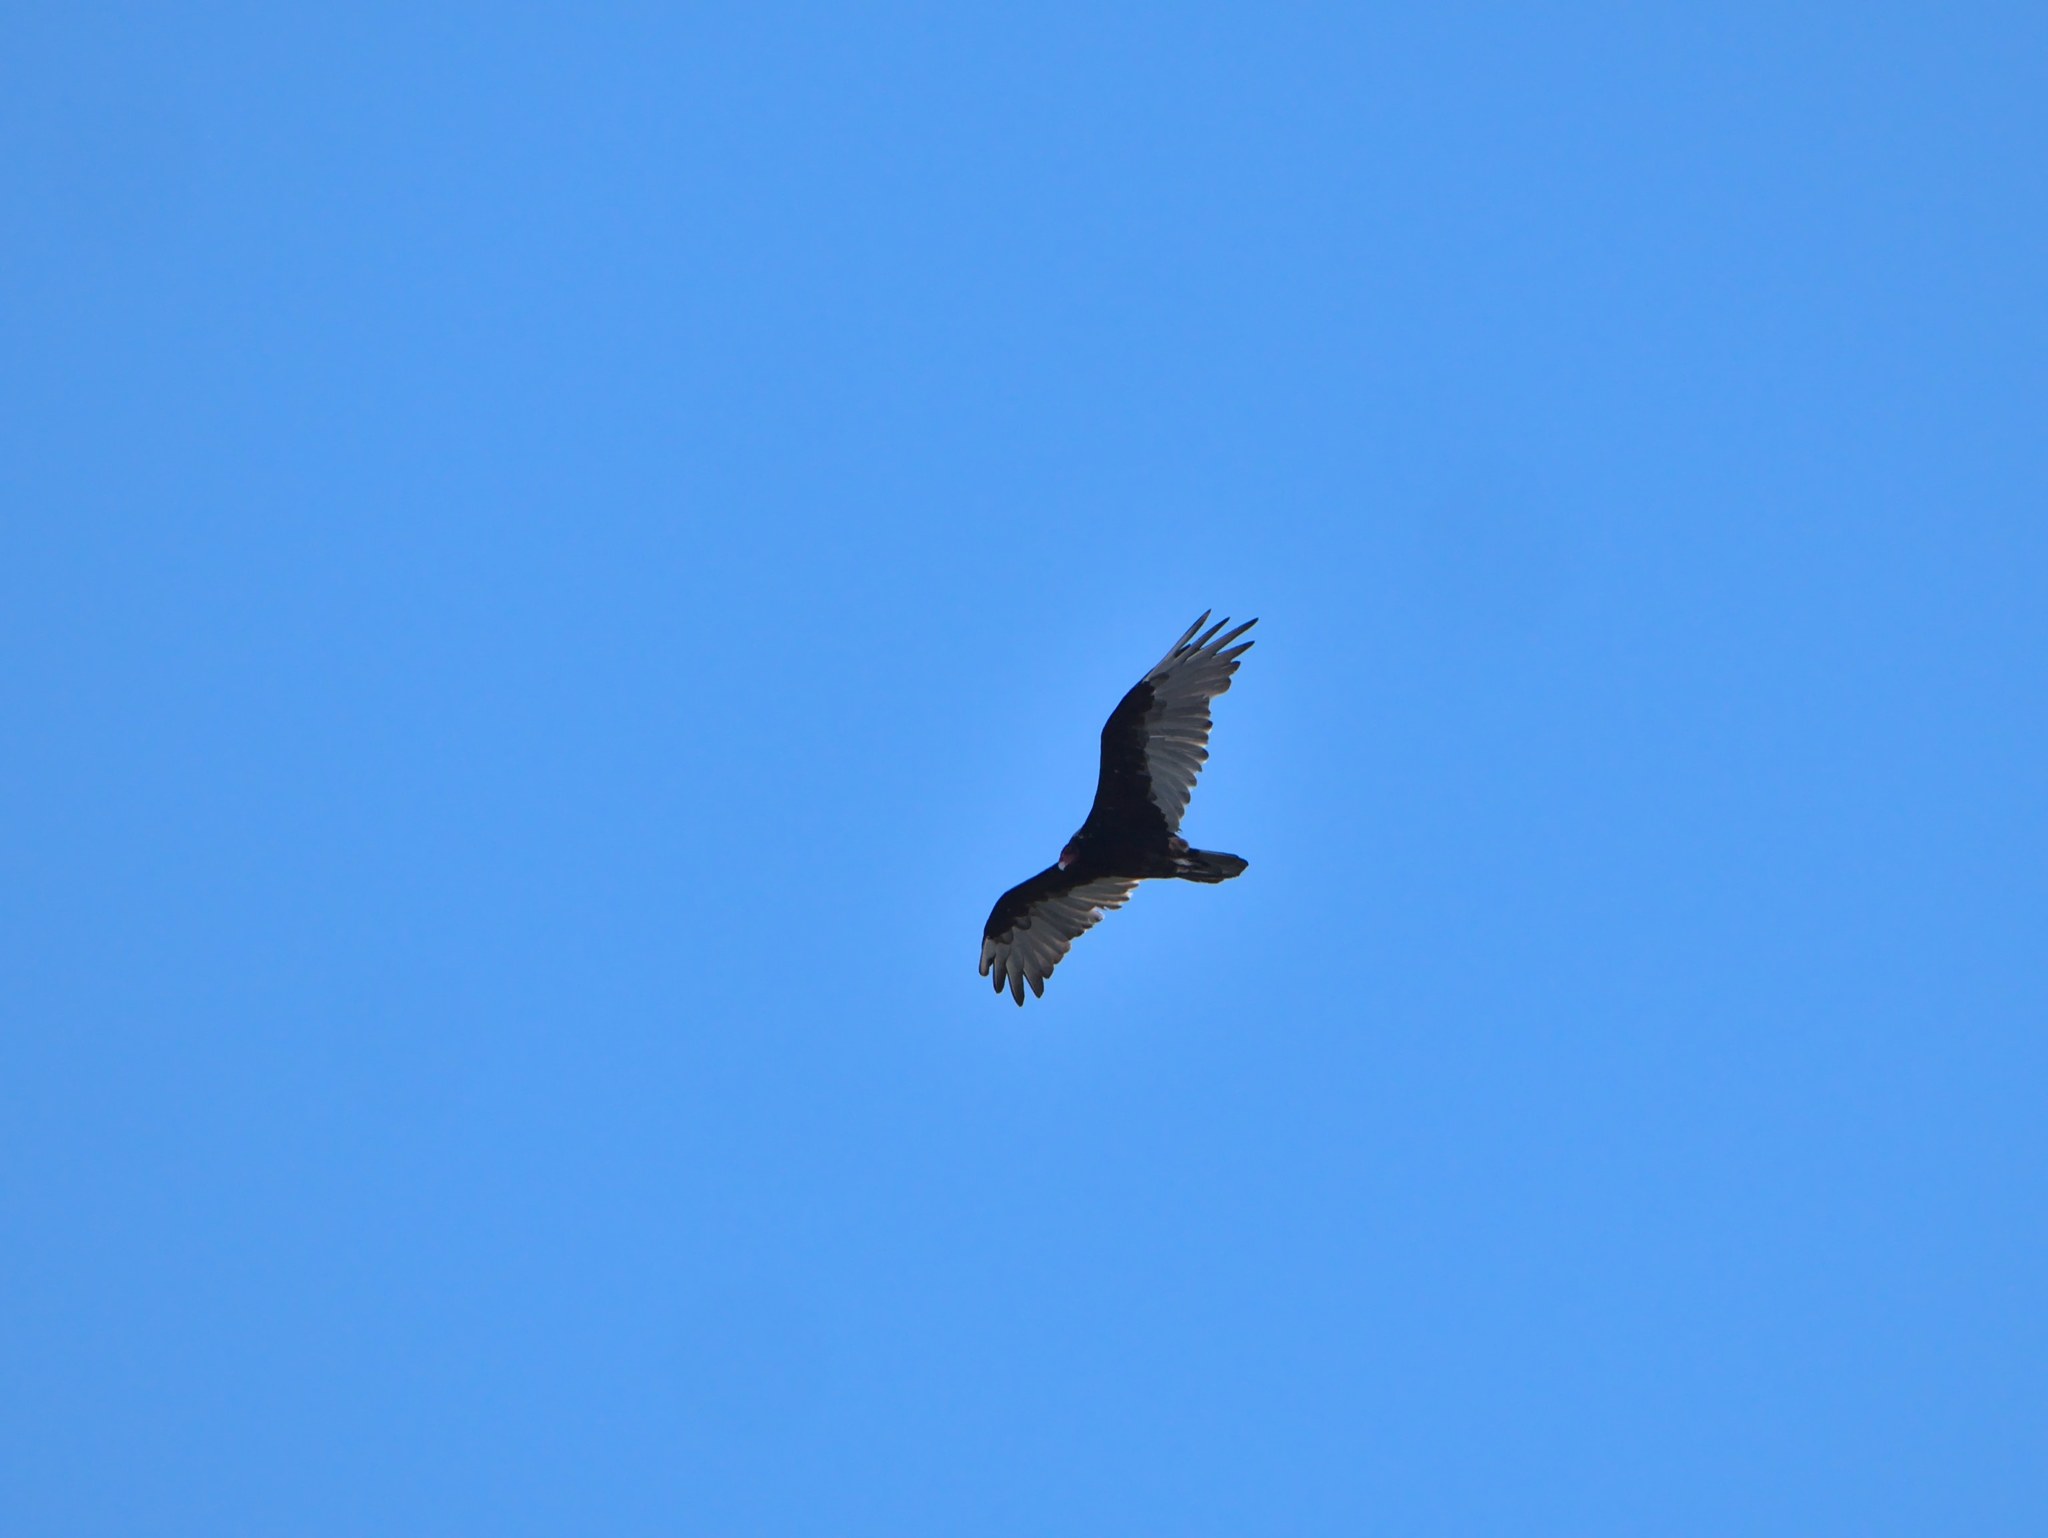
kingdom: Animalia
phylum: Chordata
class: Aves
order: Accipitriformes
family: Cathartidae
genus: Cathartes
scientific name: Cathartes aura
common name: Turkey vulture
